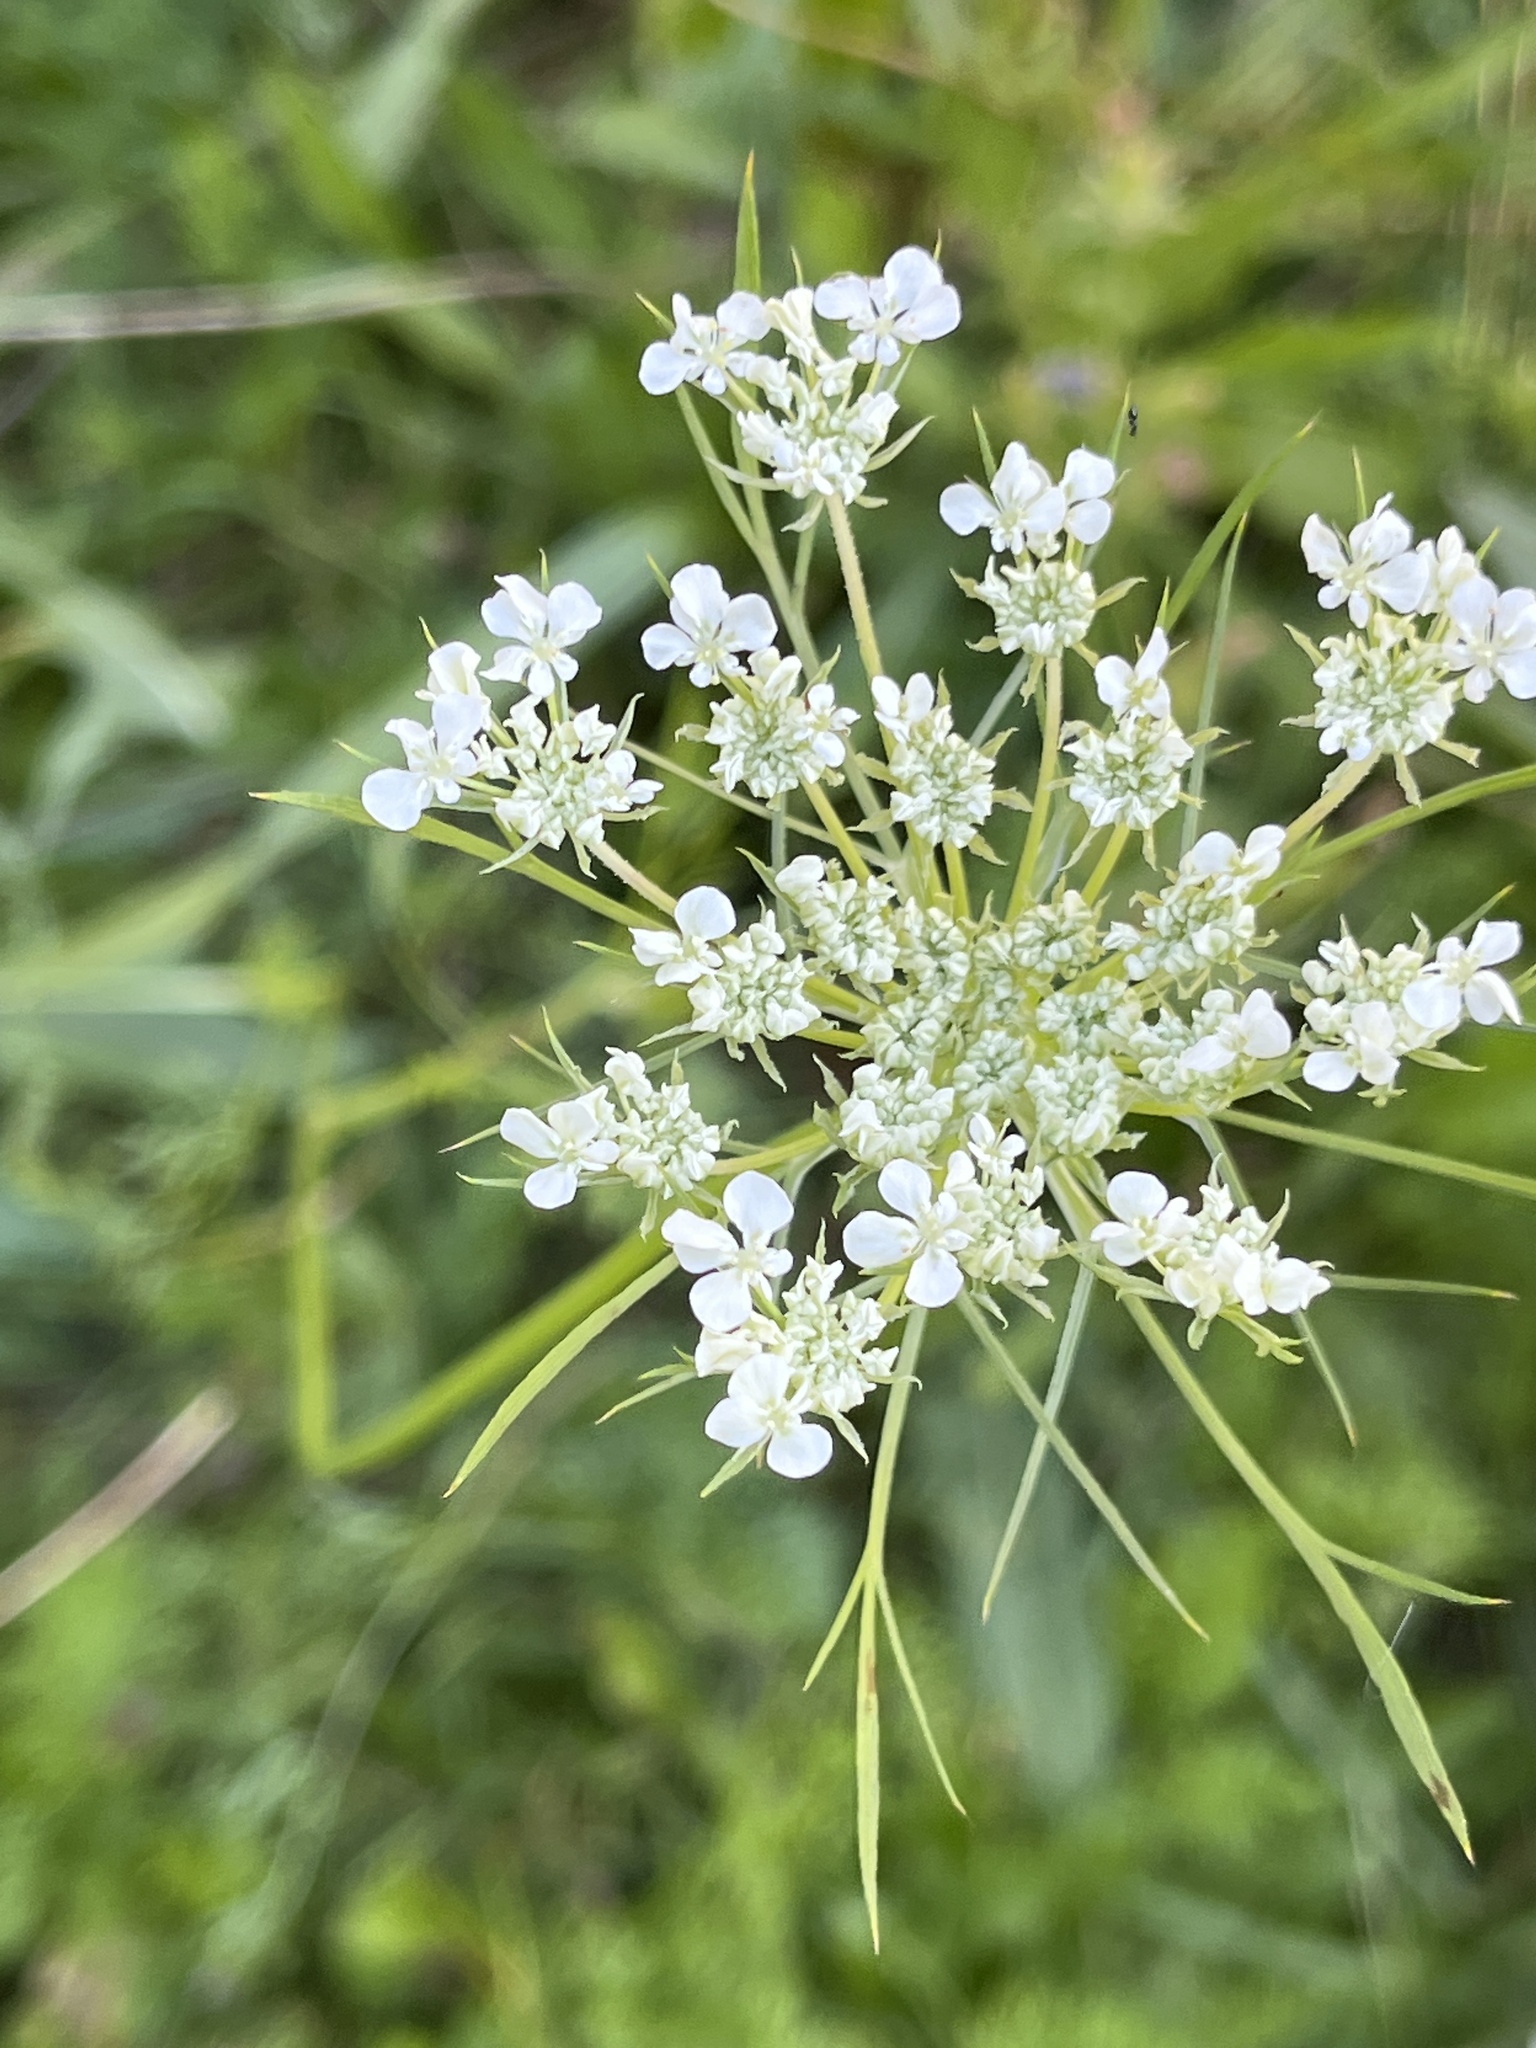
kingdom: Plantae
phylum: Tracheophyta
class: Magnoliopsida
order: Apiales
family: Apiaceae
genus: Daucus
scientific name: Daucus carota
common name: Wild carrot
